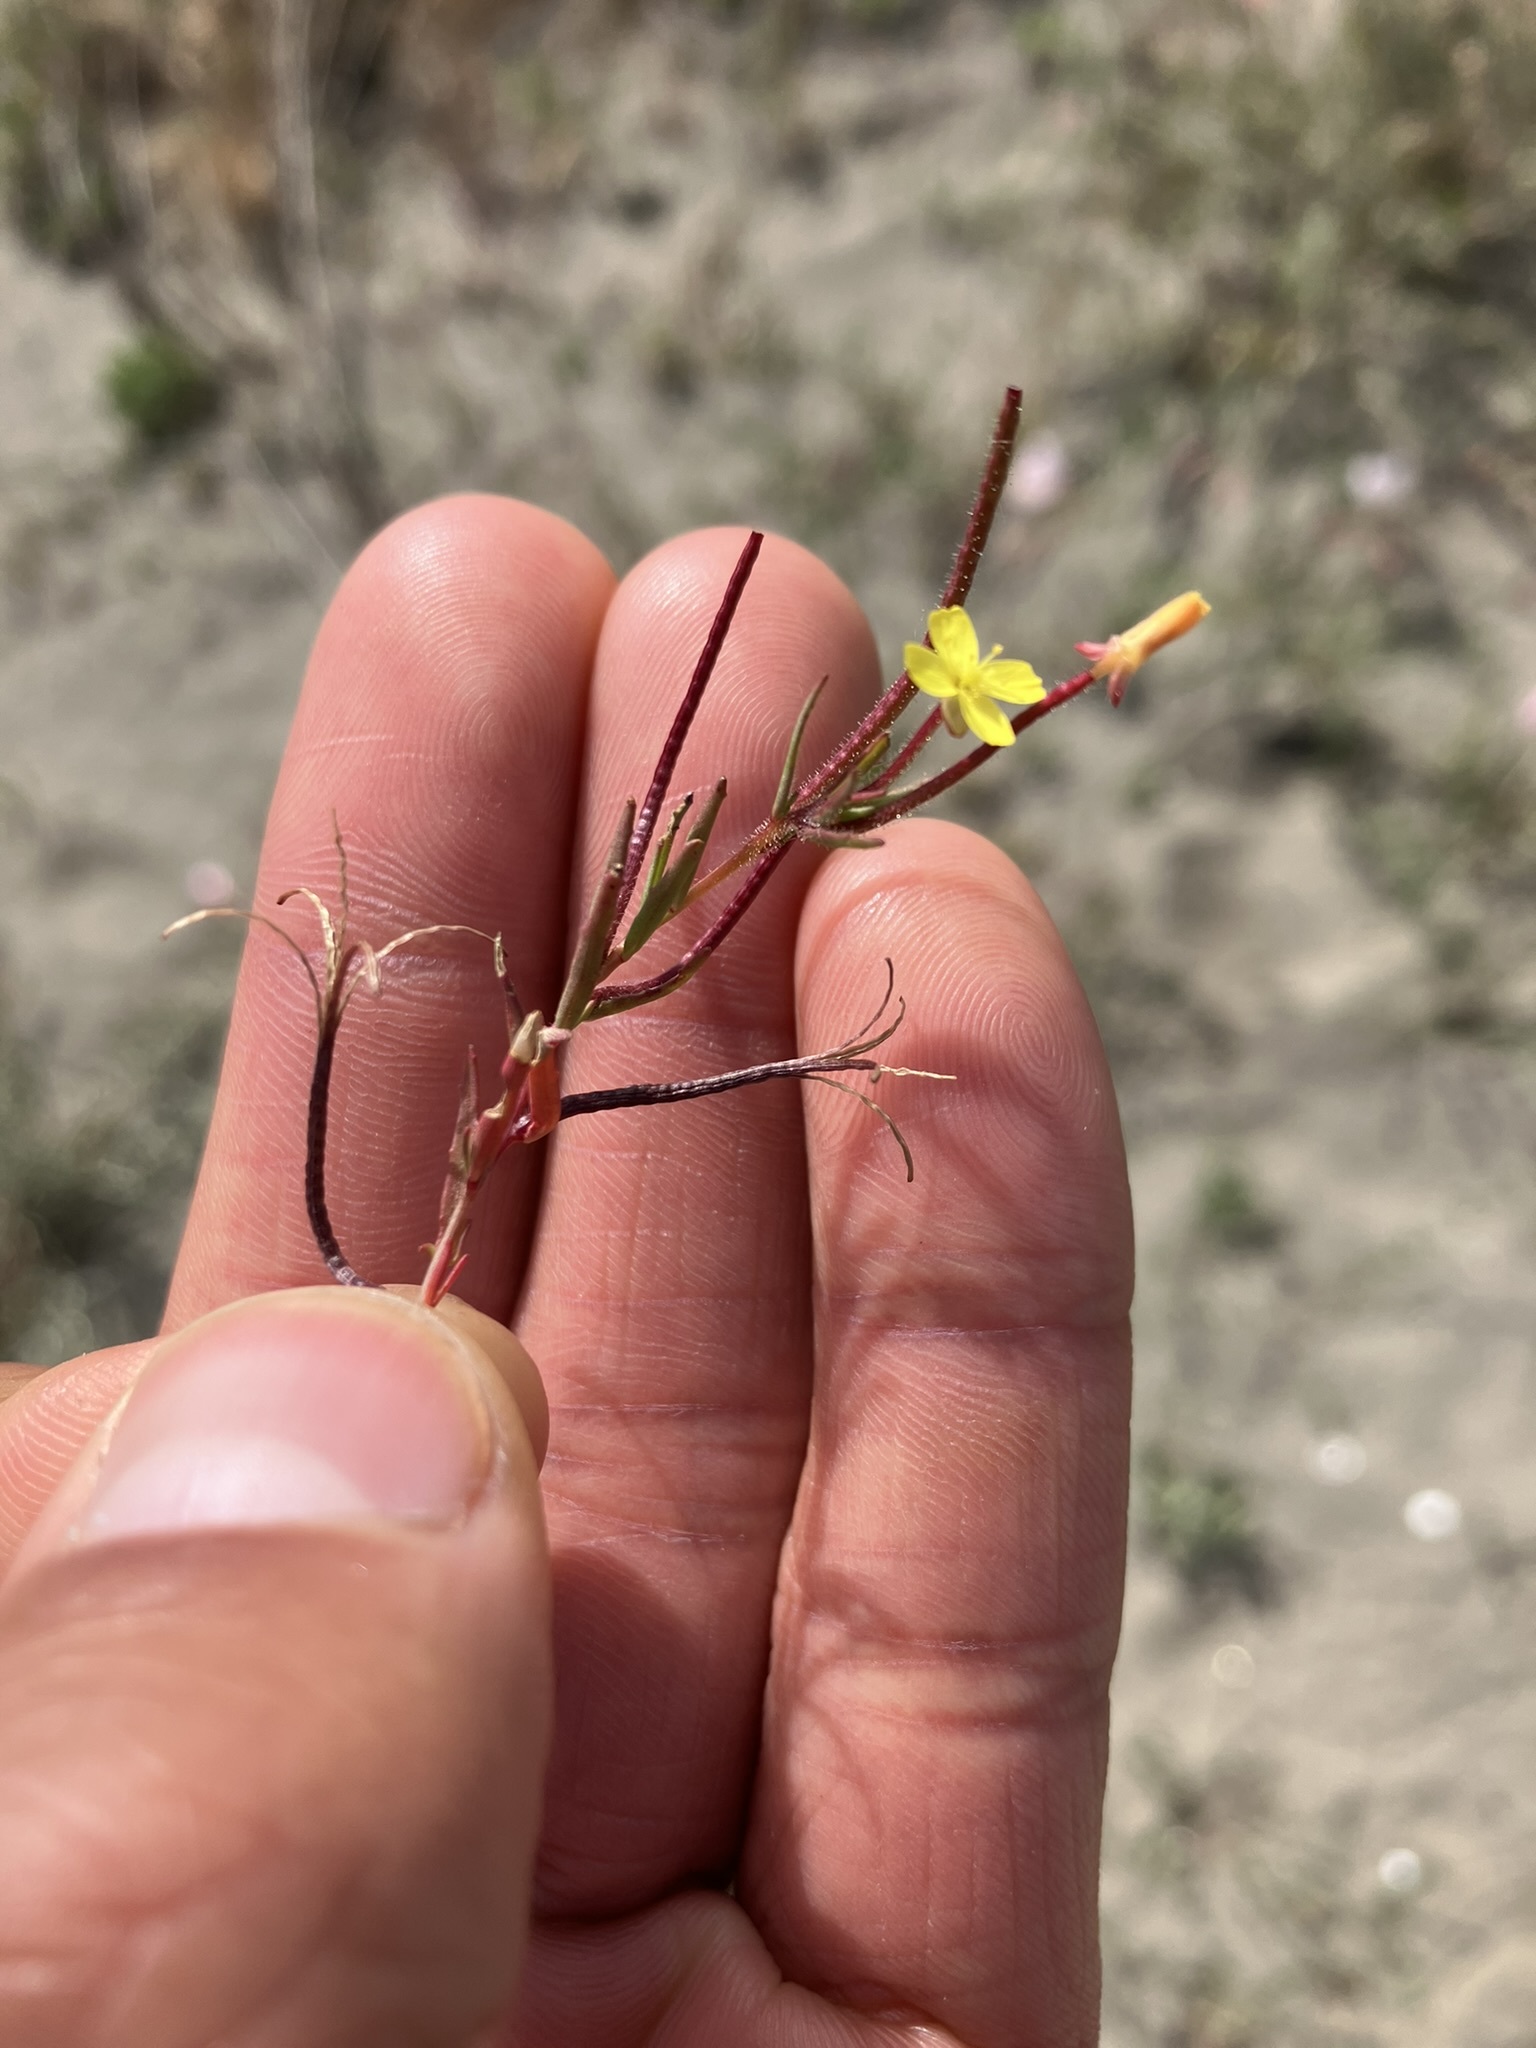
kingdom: Plantae
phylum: Tracheophyta
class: Magnoliopsida
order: Myrtales
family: Onagraceae
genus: Camissonia
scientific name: Camissonia contorta
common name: Contorted suncup
